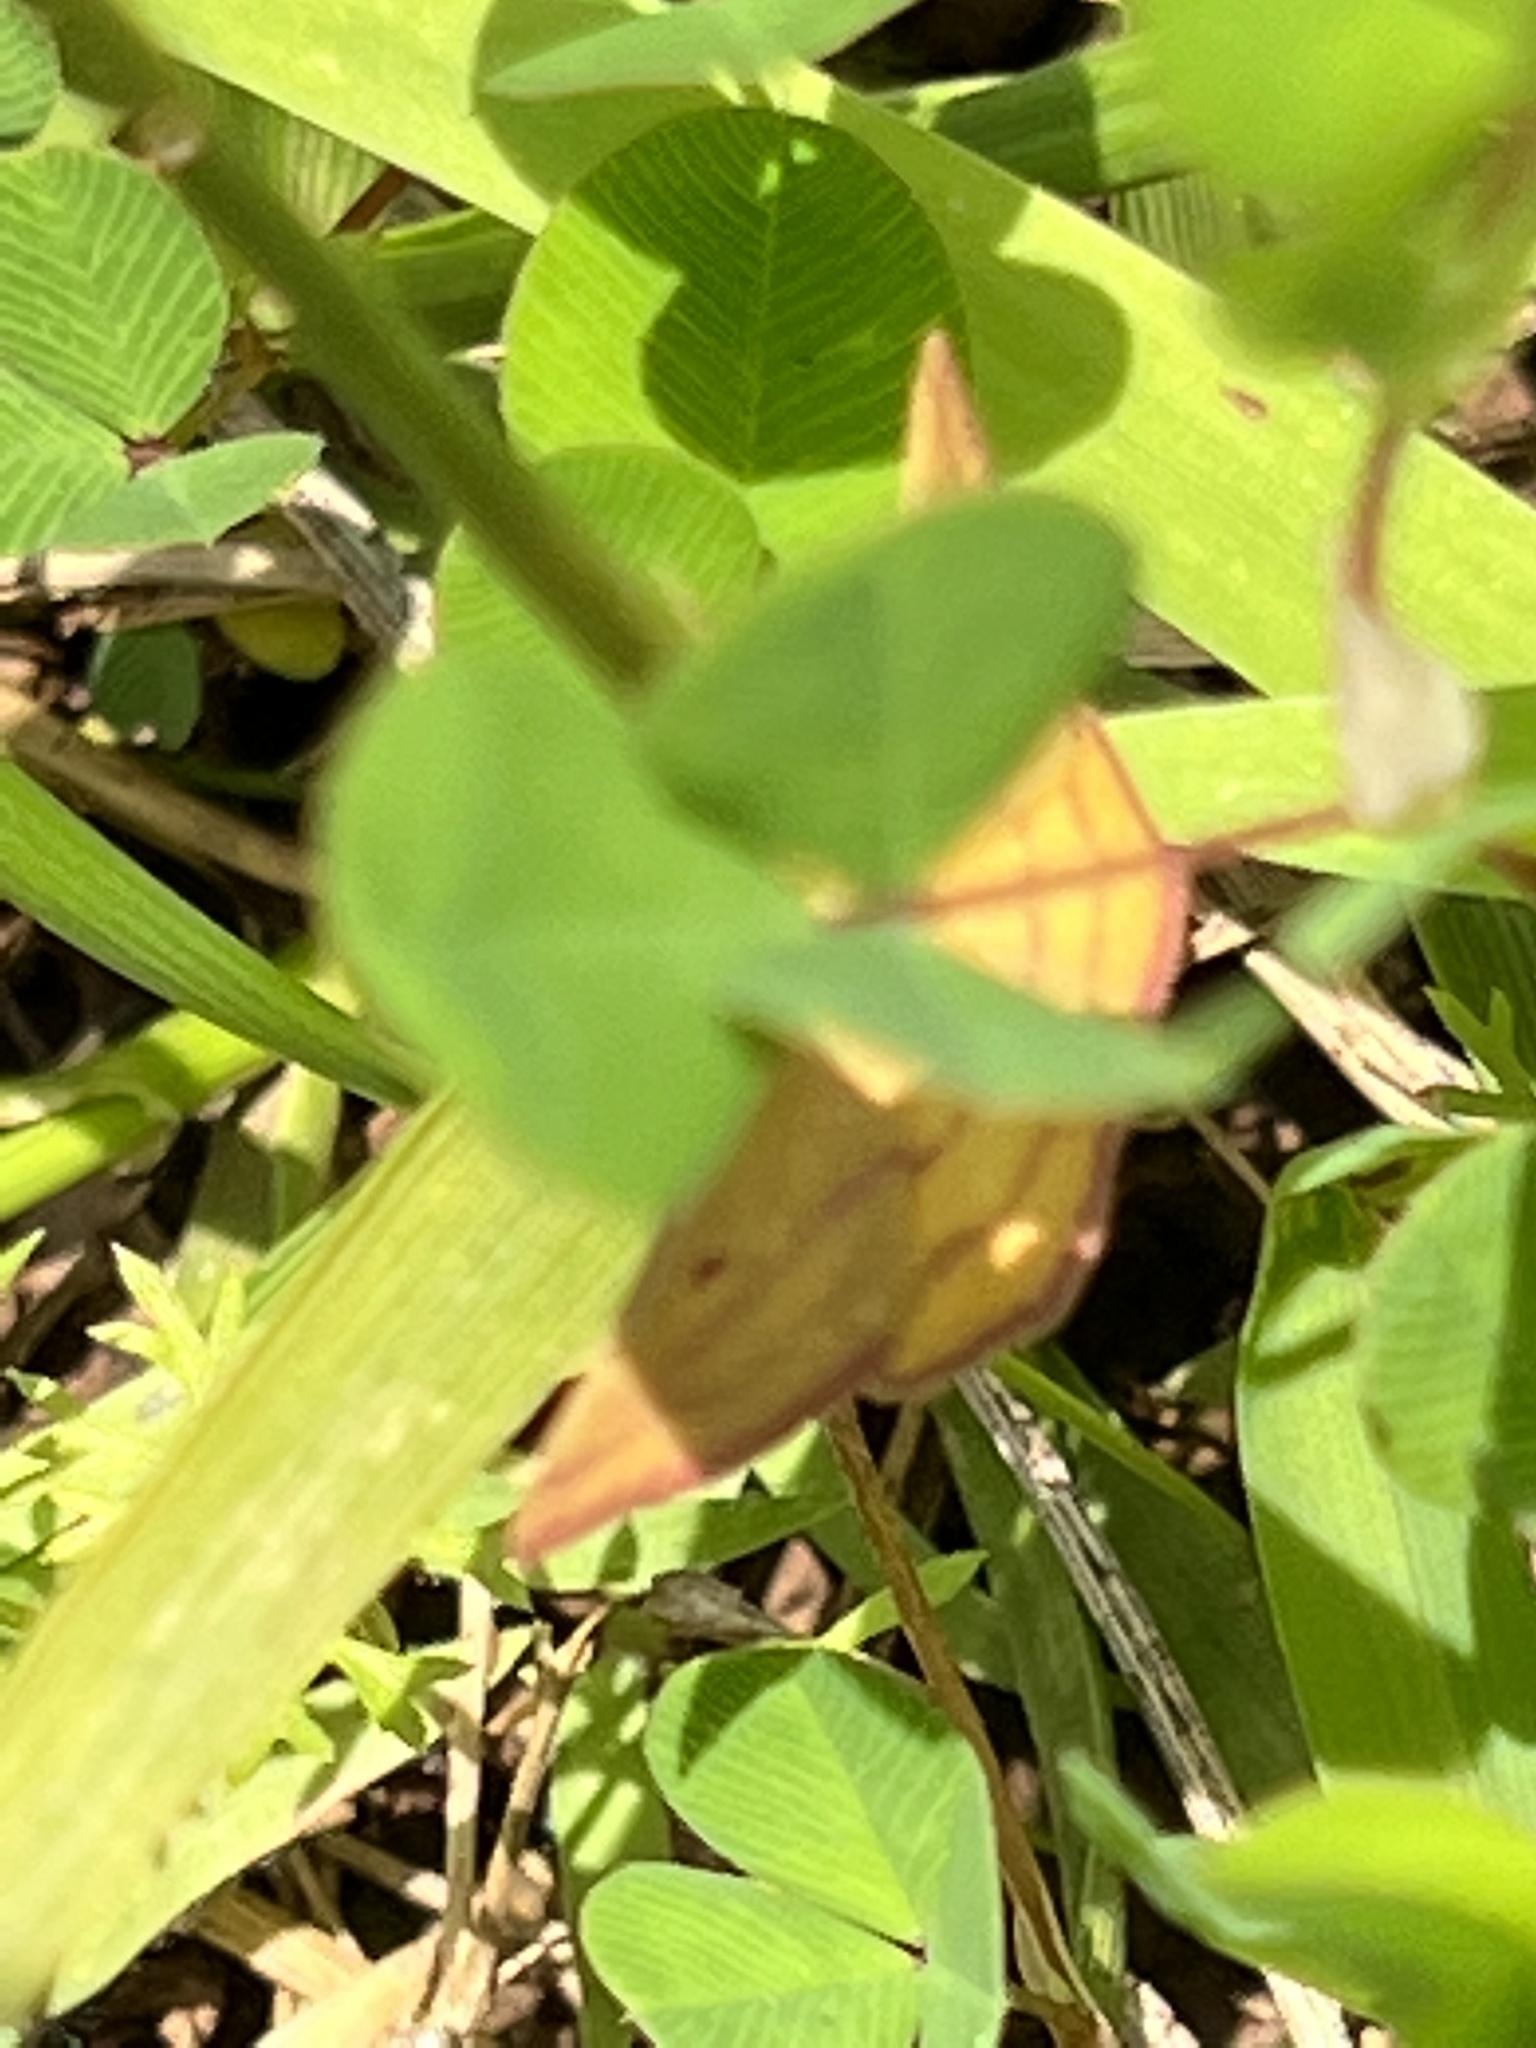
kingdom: Animalia
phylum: Arthropoda
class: Insecta
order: Lepidoptera
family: Geometridae
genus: Haematopis
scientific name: Haematopis grataria
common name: Chickweed geometer
